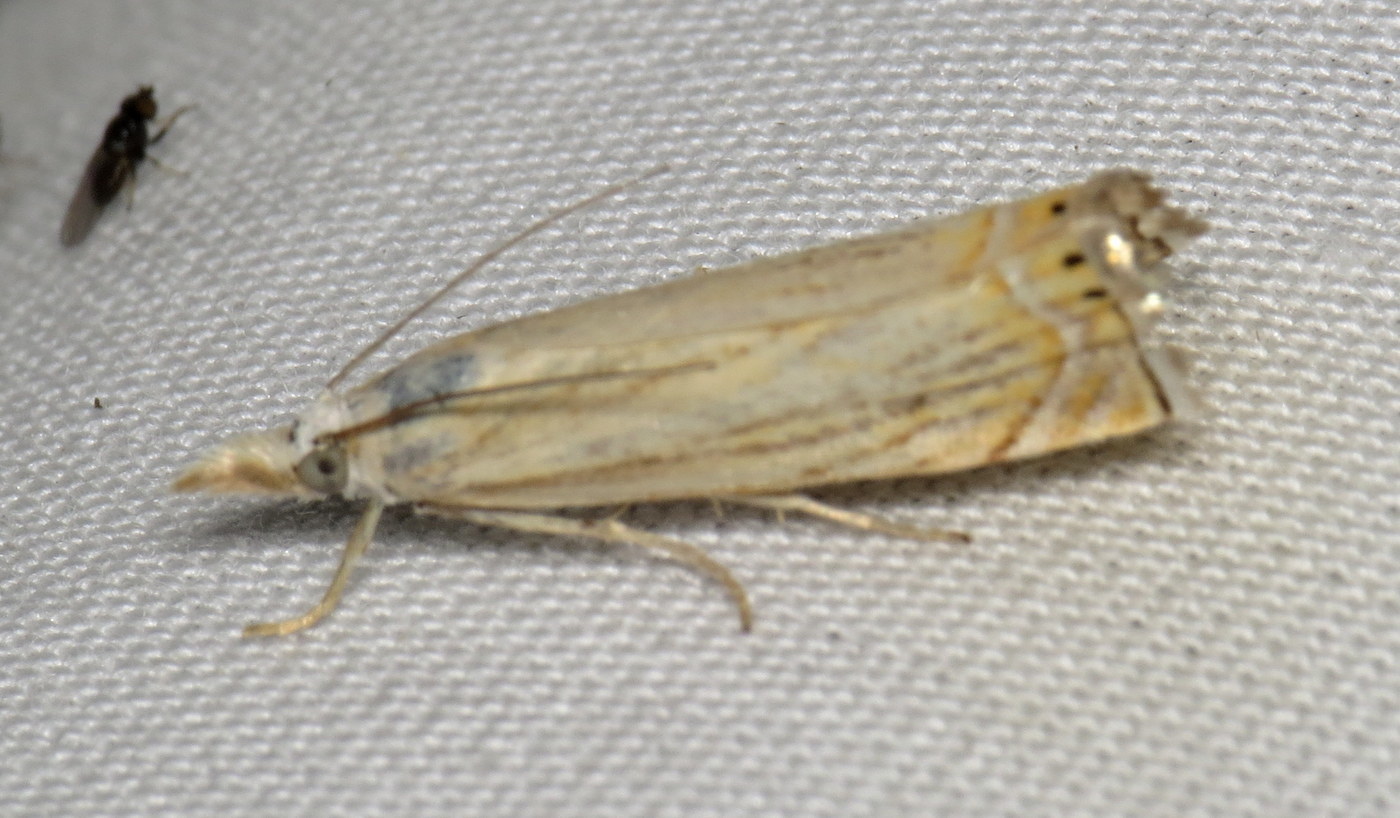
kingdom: Animalia
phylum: Arthropoda
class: Insecta
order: Lepidoptera
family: Crambidae
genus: Chrysoteuchia
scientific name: Chrysoteuchia topiarius
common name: Topiary grass-veneer
